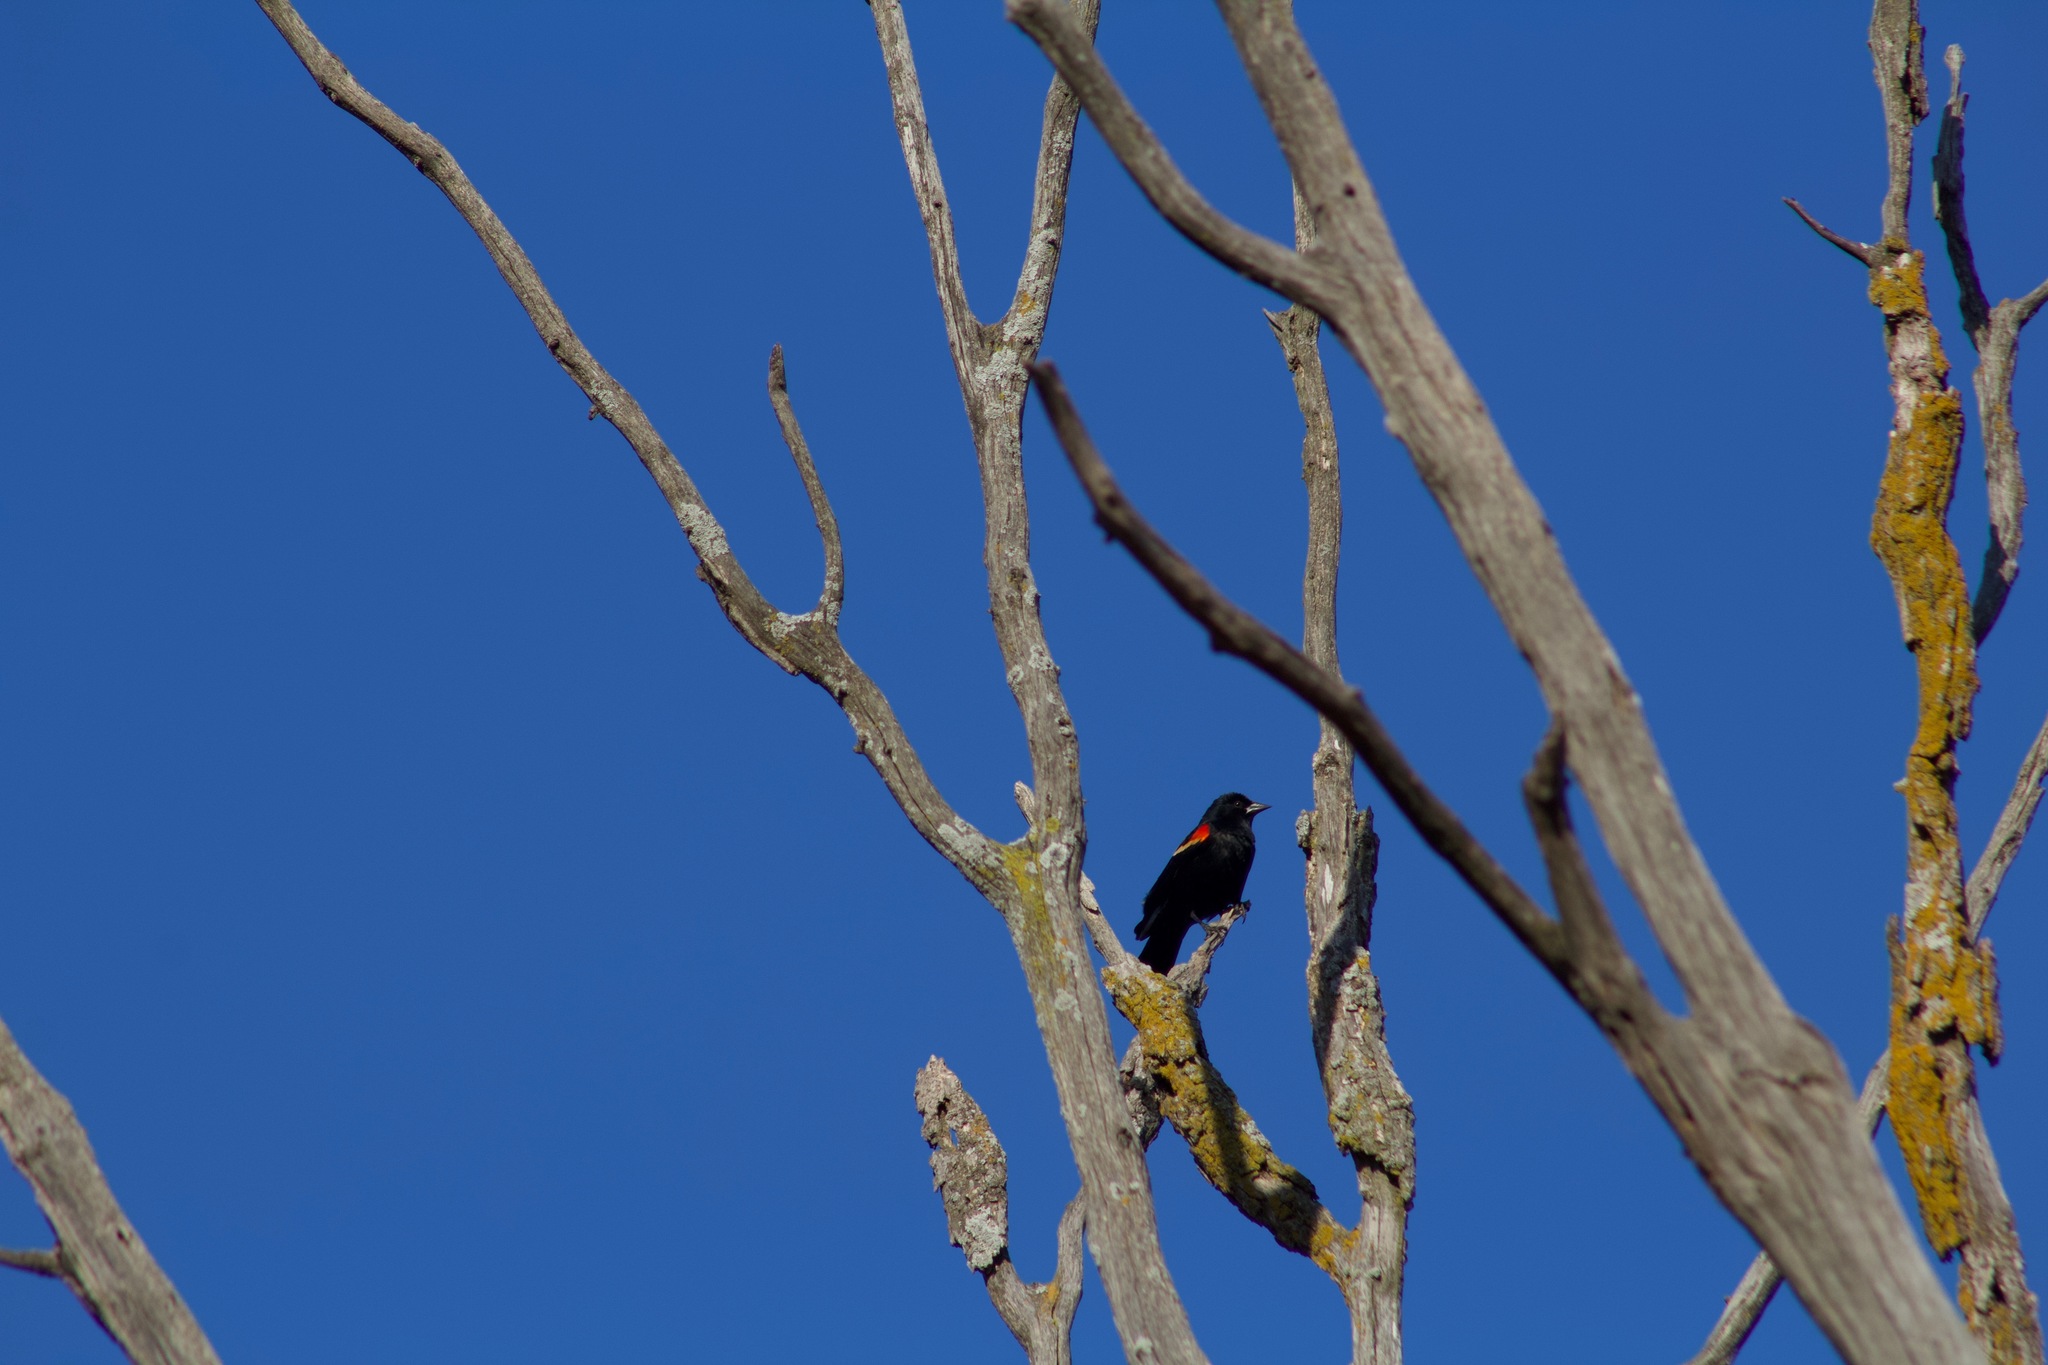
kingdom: Animalia
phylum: Chordata
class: Aves
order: Passeriformes
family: Icteridae
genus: Agelaius
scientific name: Agelaius phoeniceus
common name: Red-winged blackbird
